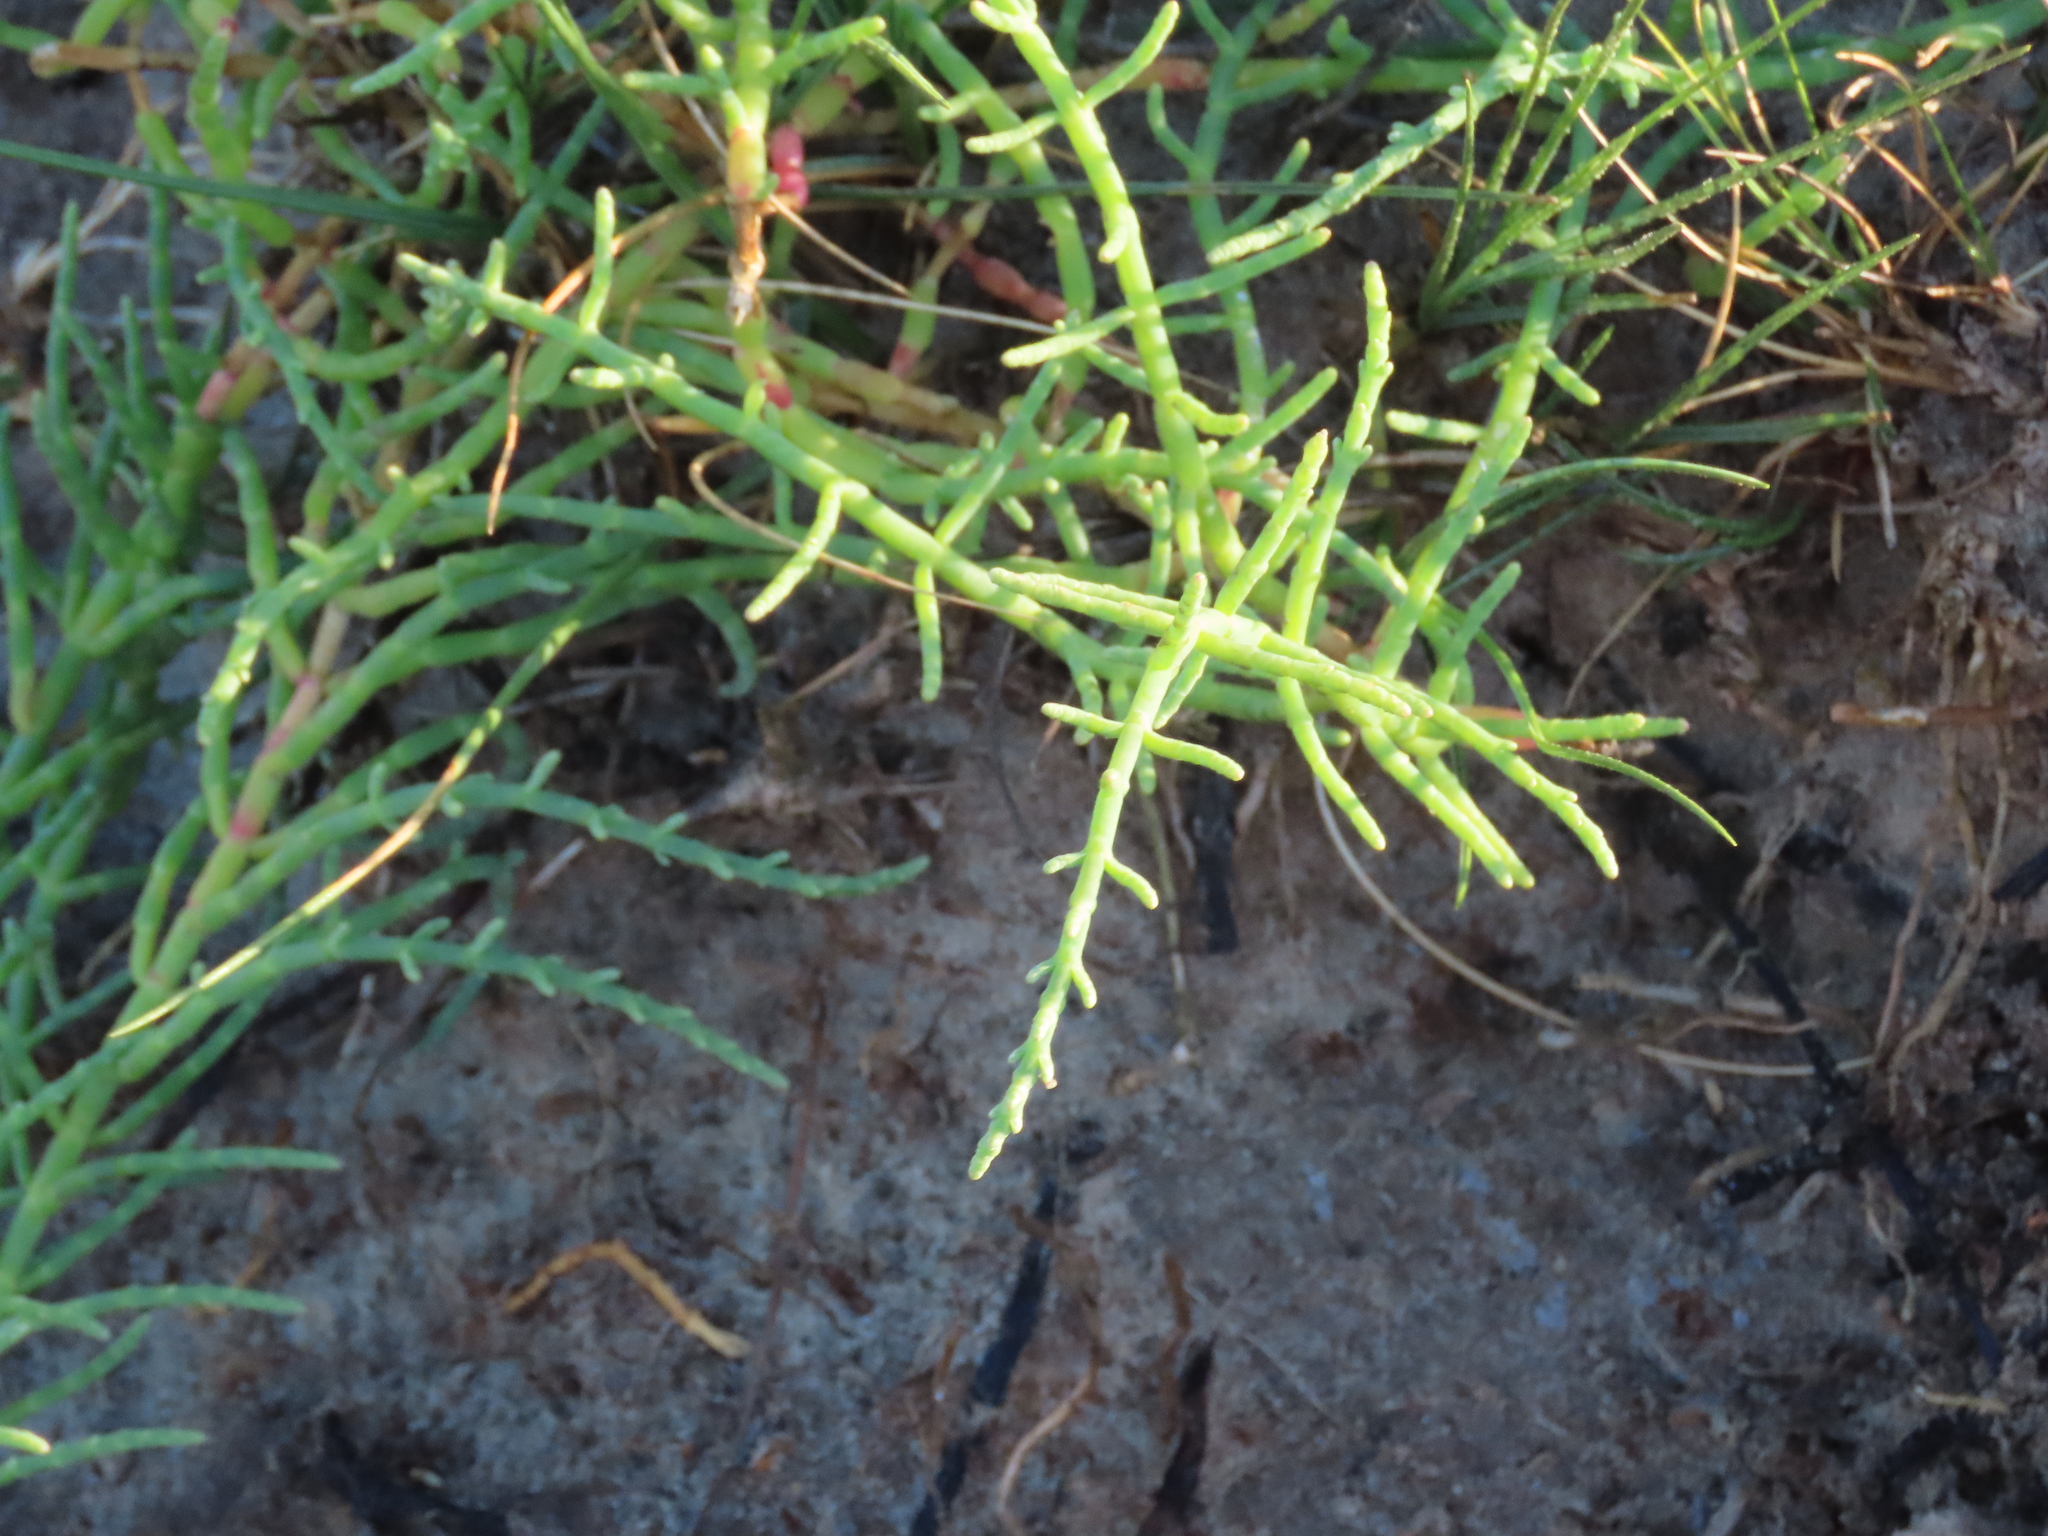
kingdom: Plantae
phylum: Tracheophyta
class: Magnoliopsida
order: Caryophyllales
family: Amaranthaceae
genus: Salicornia
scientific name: Salicornia ambigua
